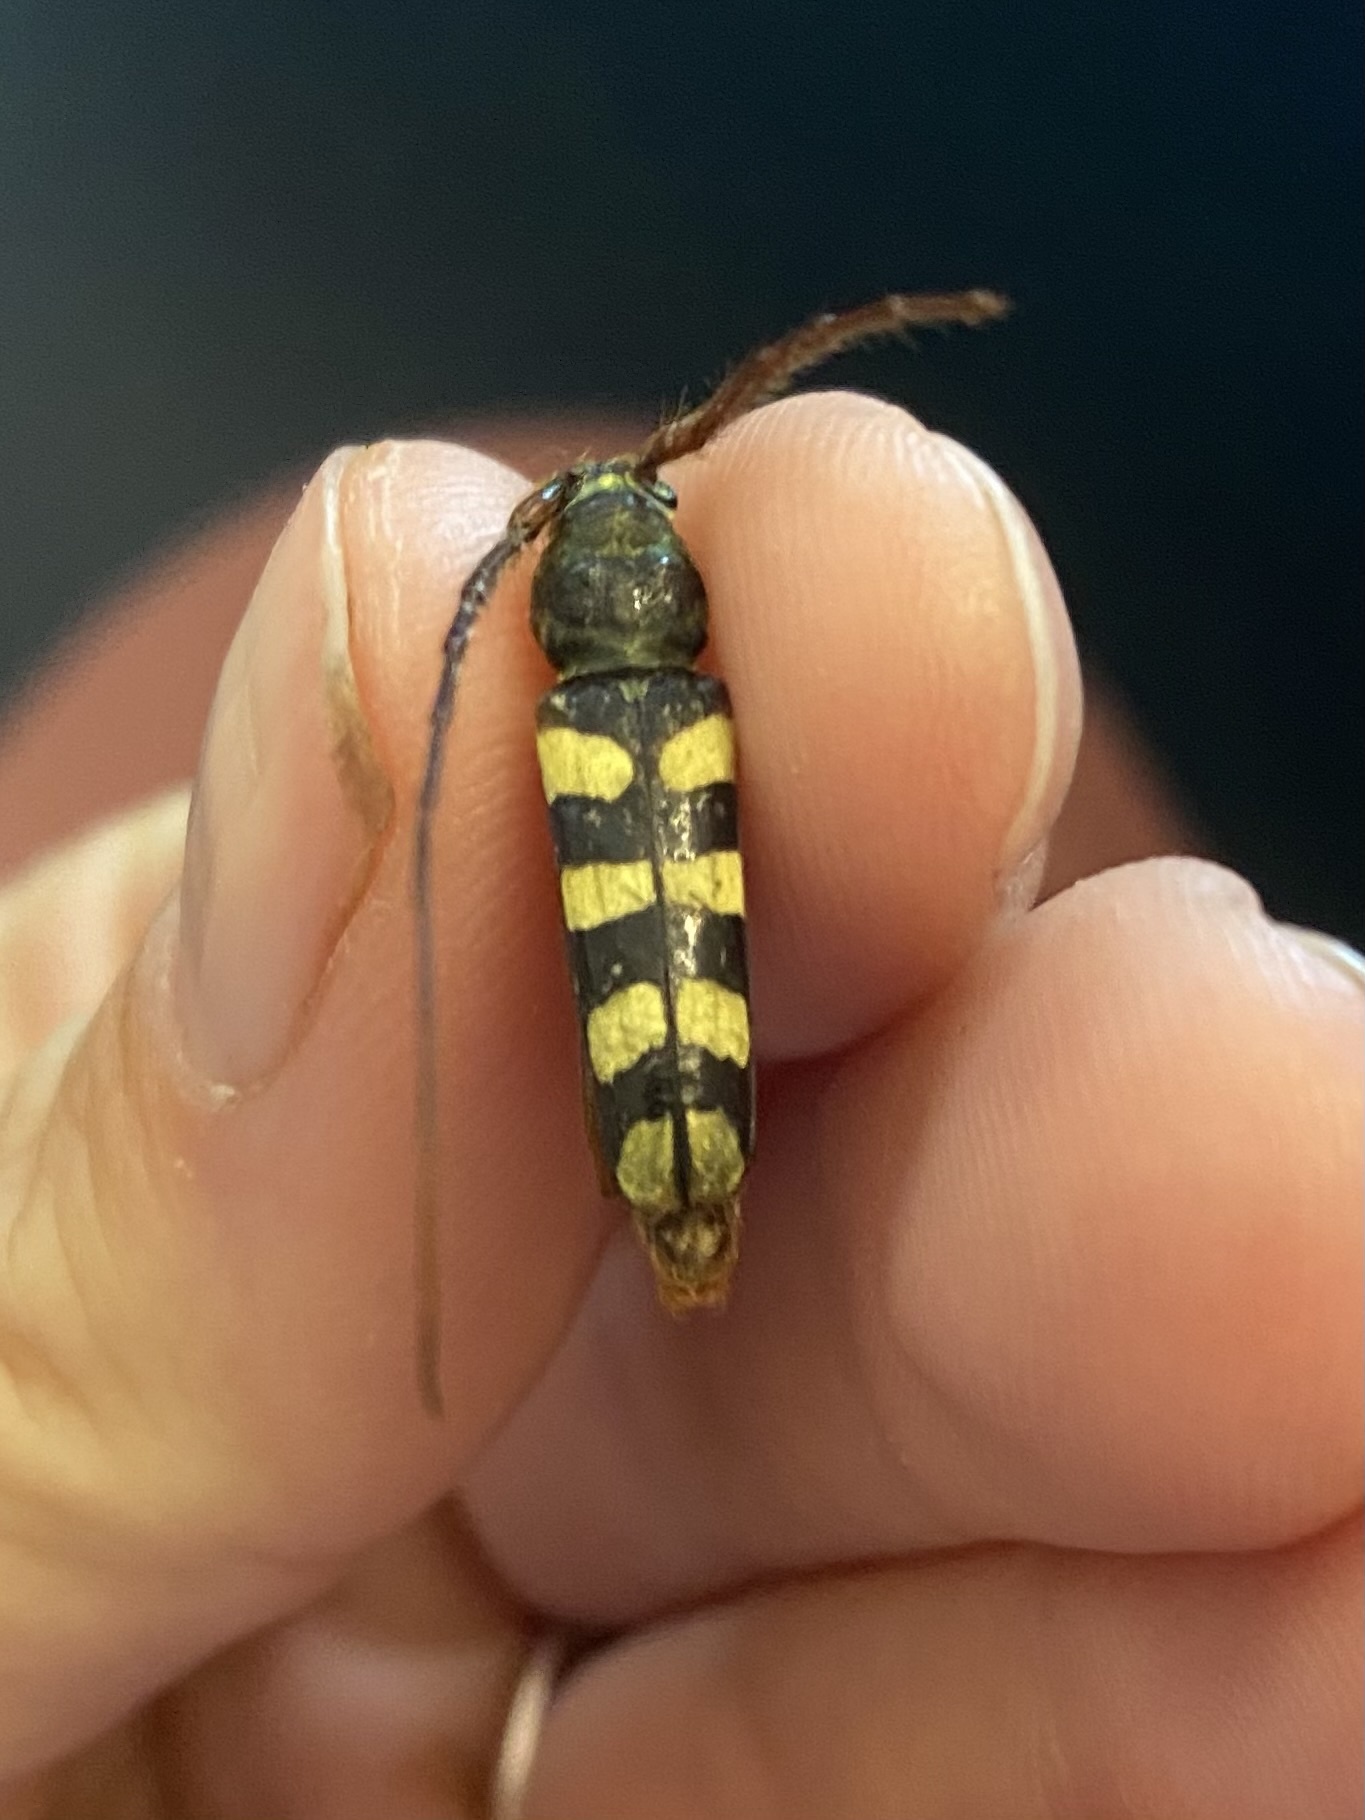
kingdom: Animalia
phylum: Arthropoda
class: Insecta
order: Coleoptera
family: Cerambycidae
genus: Dryobius
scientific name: Dryobius sexnotatus
